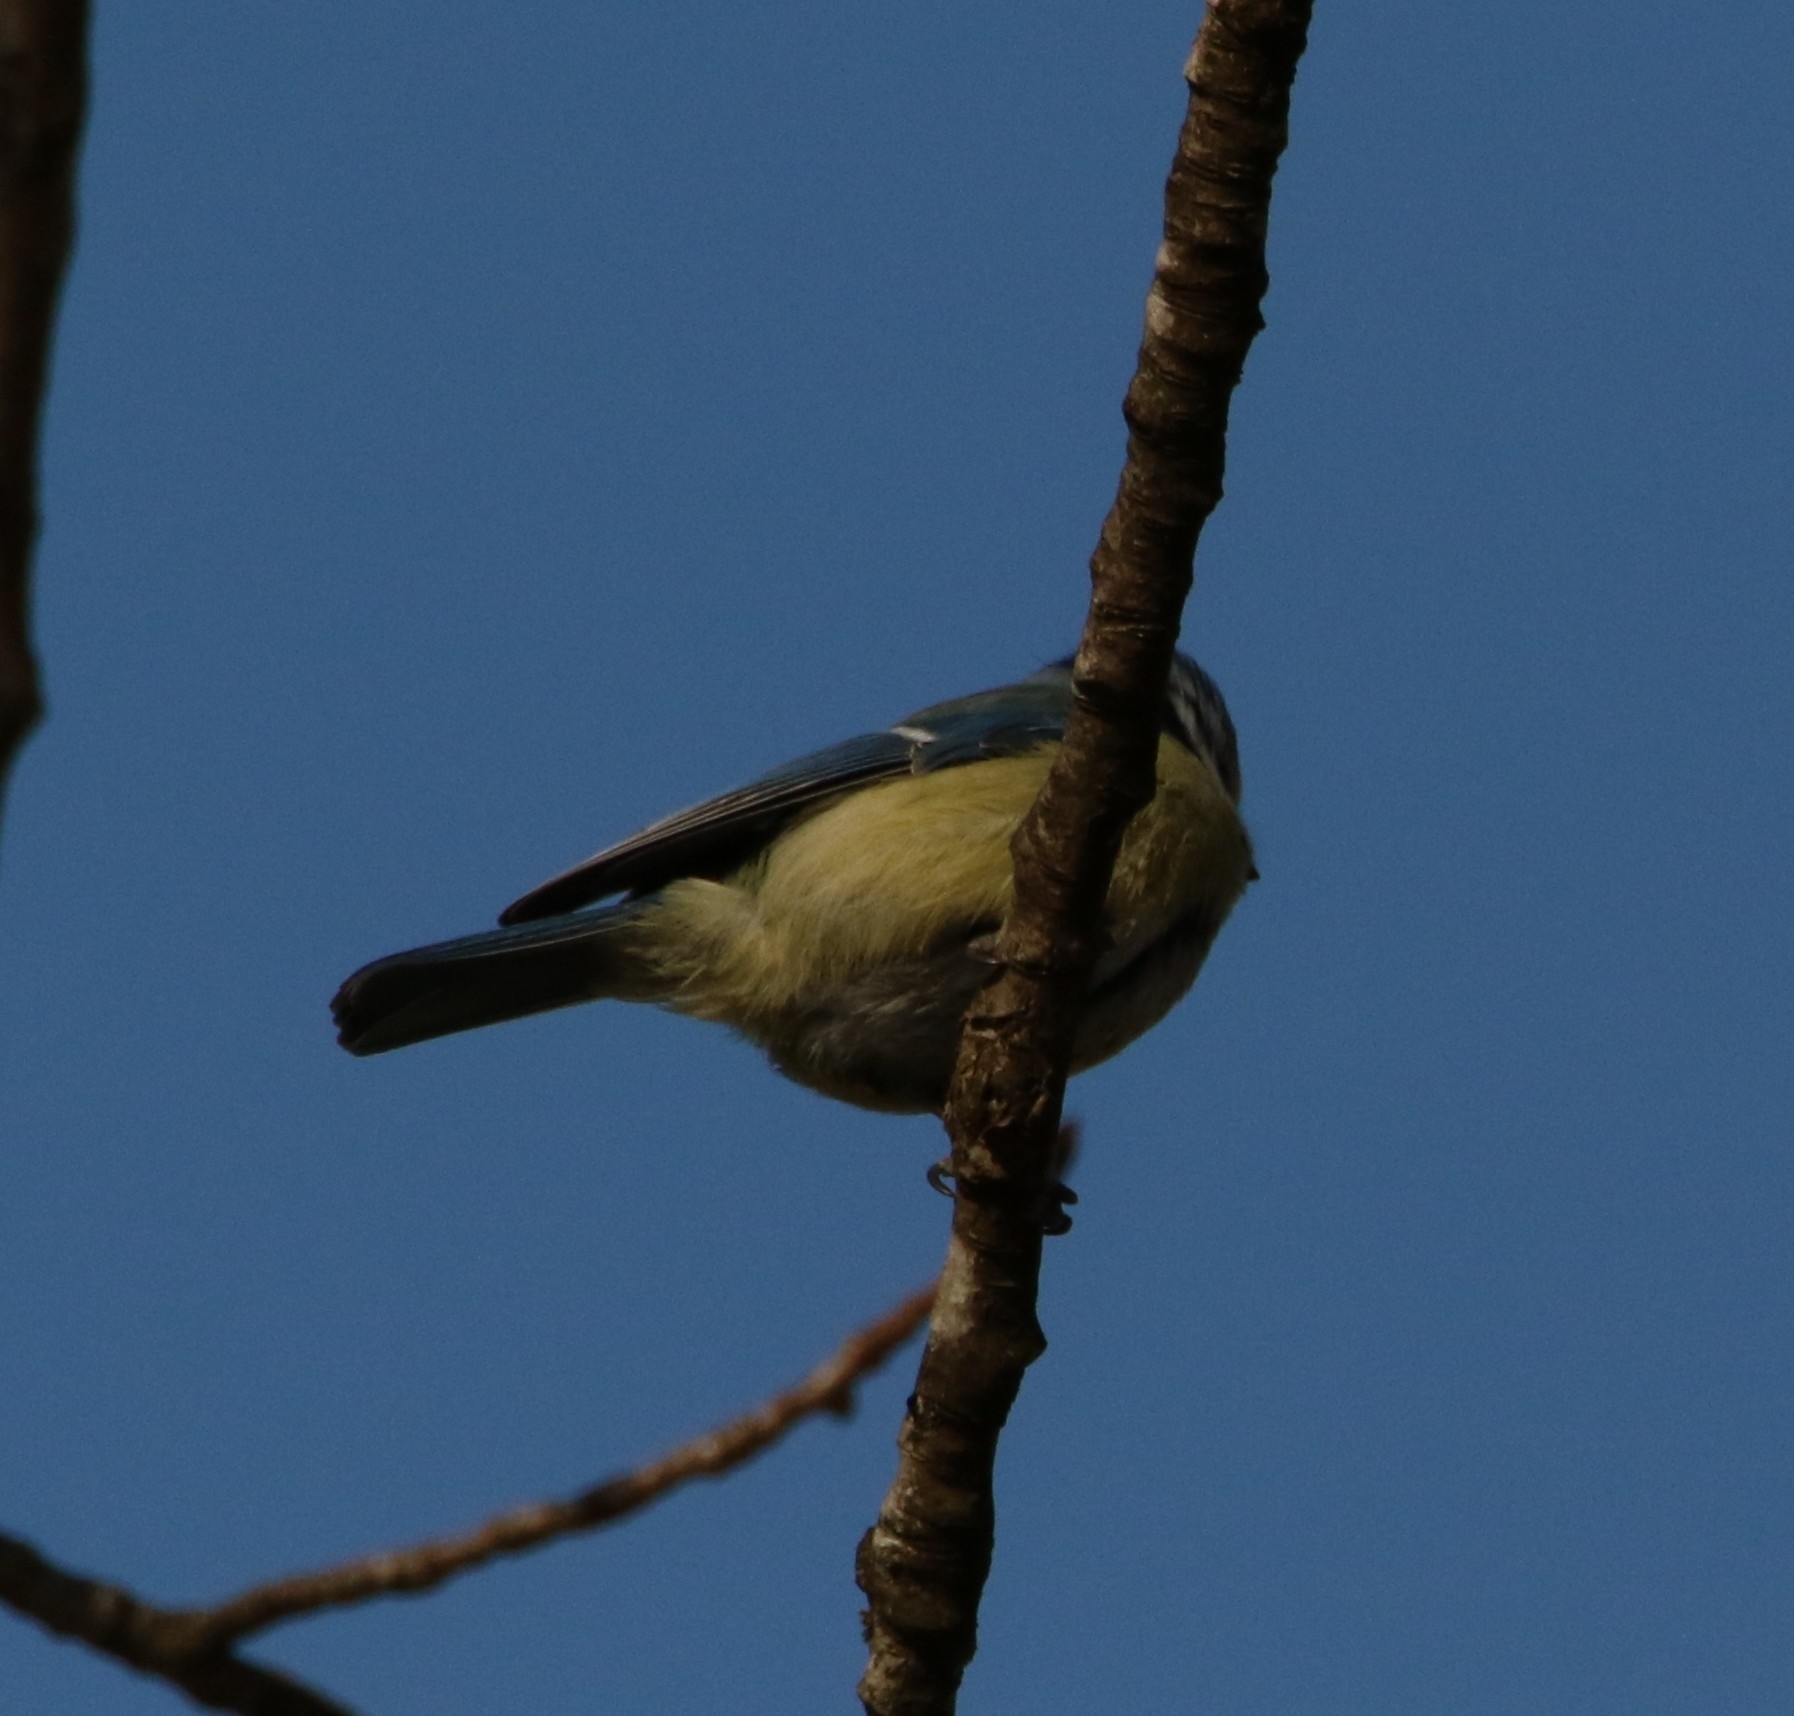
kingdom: Animalia
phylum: Chordata
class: Aves
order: Passeriformes
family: Paridae
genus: Cyanistes
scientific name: Cyanistes caeruleus
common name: Eurasian blue tit
